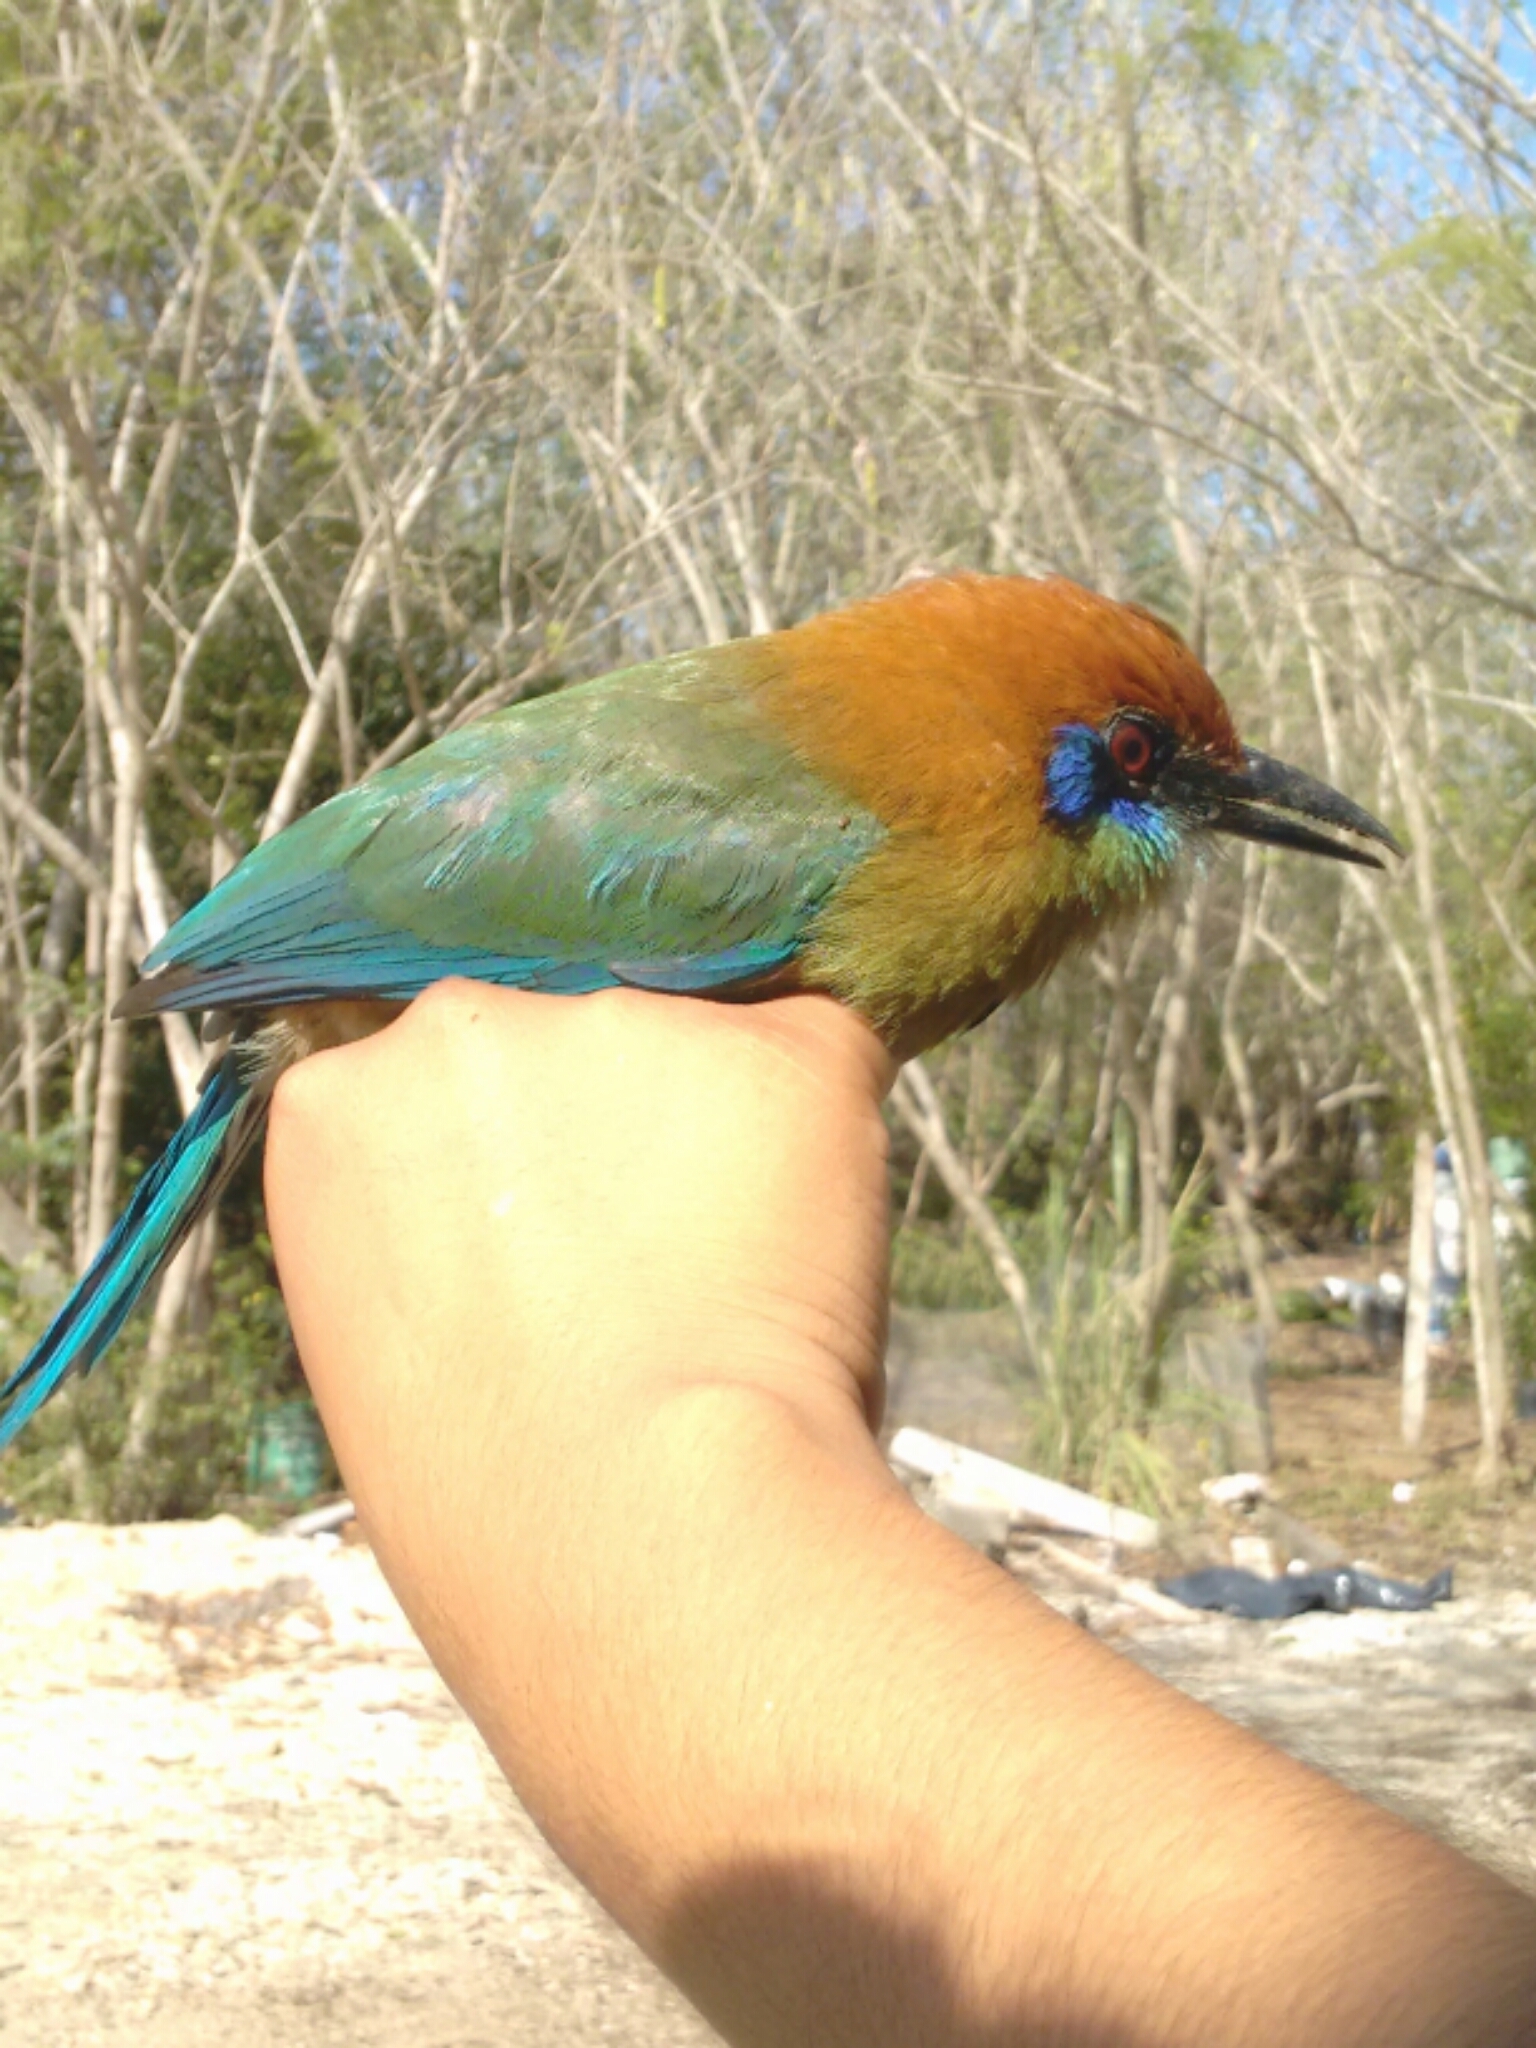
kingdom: Animalia
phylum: Chordata
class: Aves
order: Coraciiformes
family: Momotidae
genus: Momotus
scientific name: Momotus mexicanus
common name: Russet-crowned motmot
